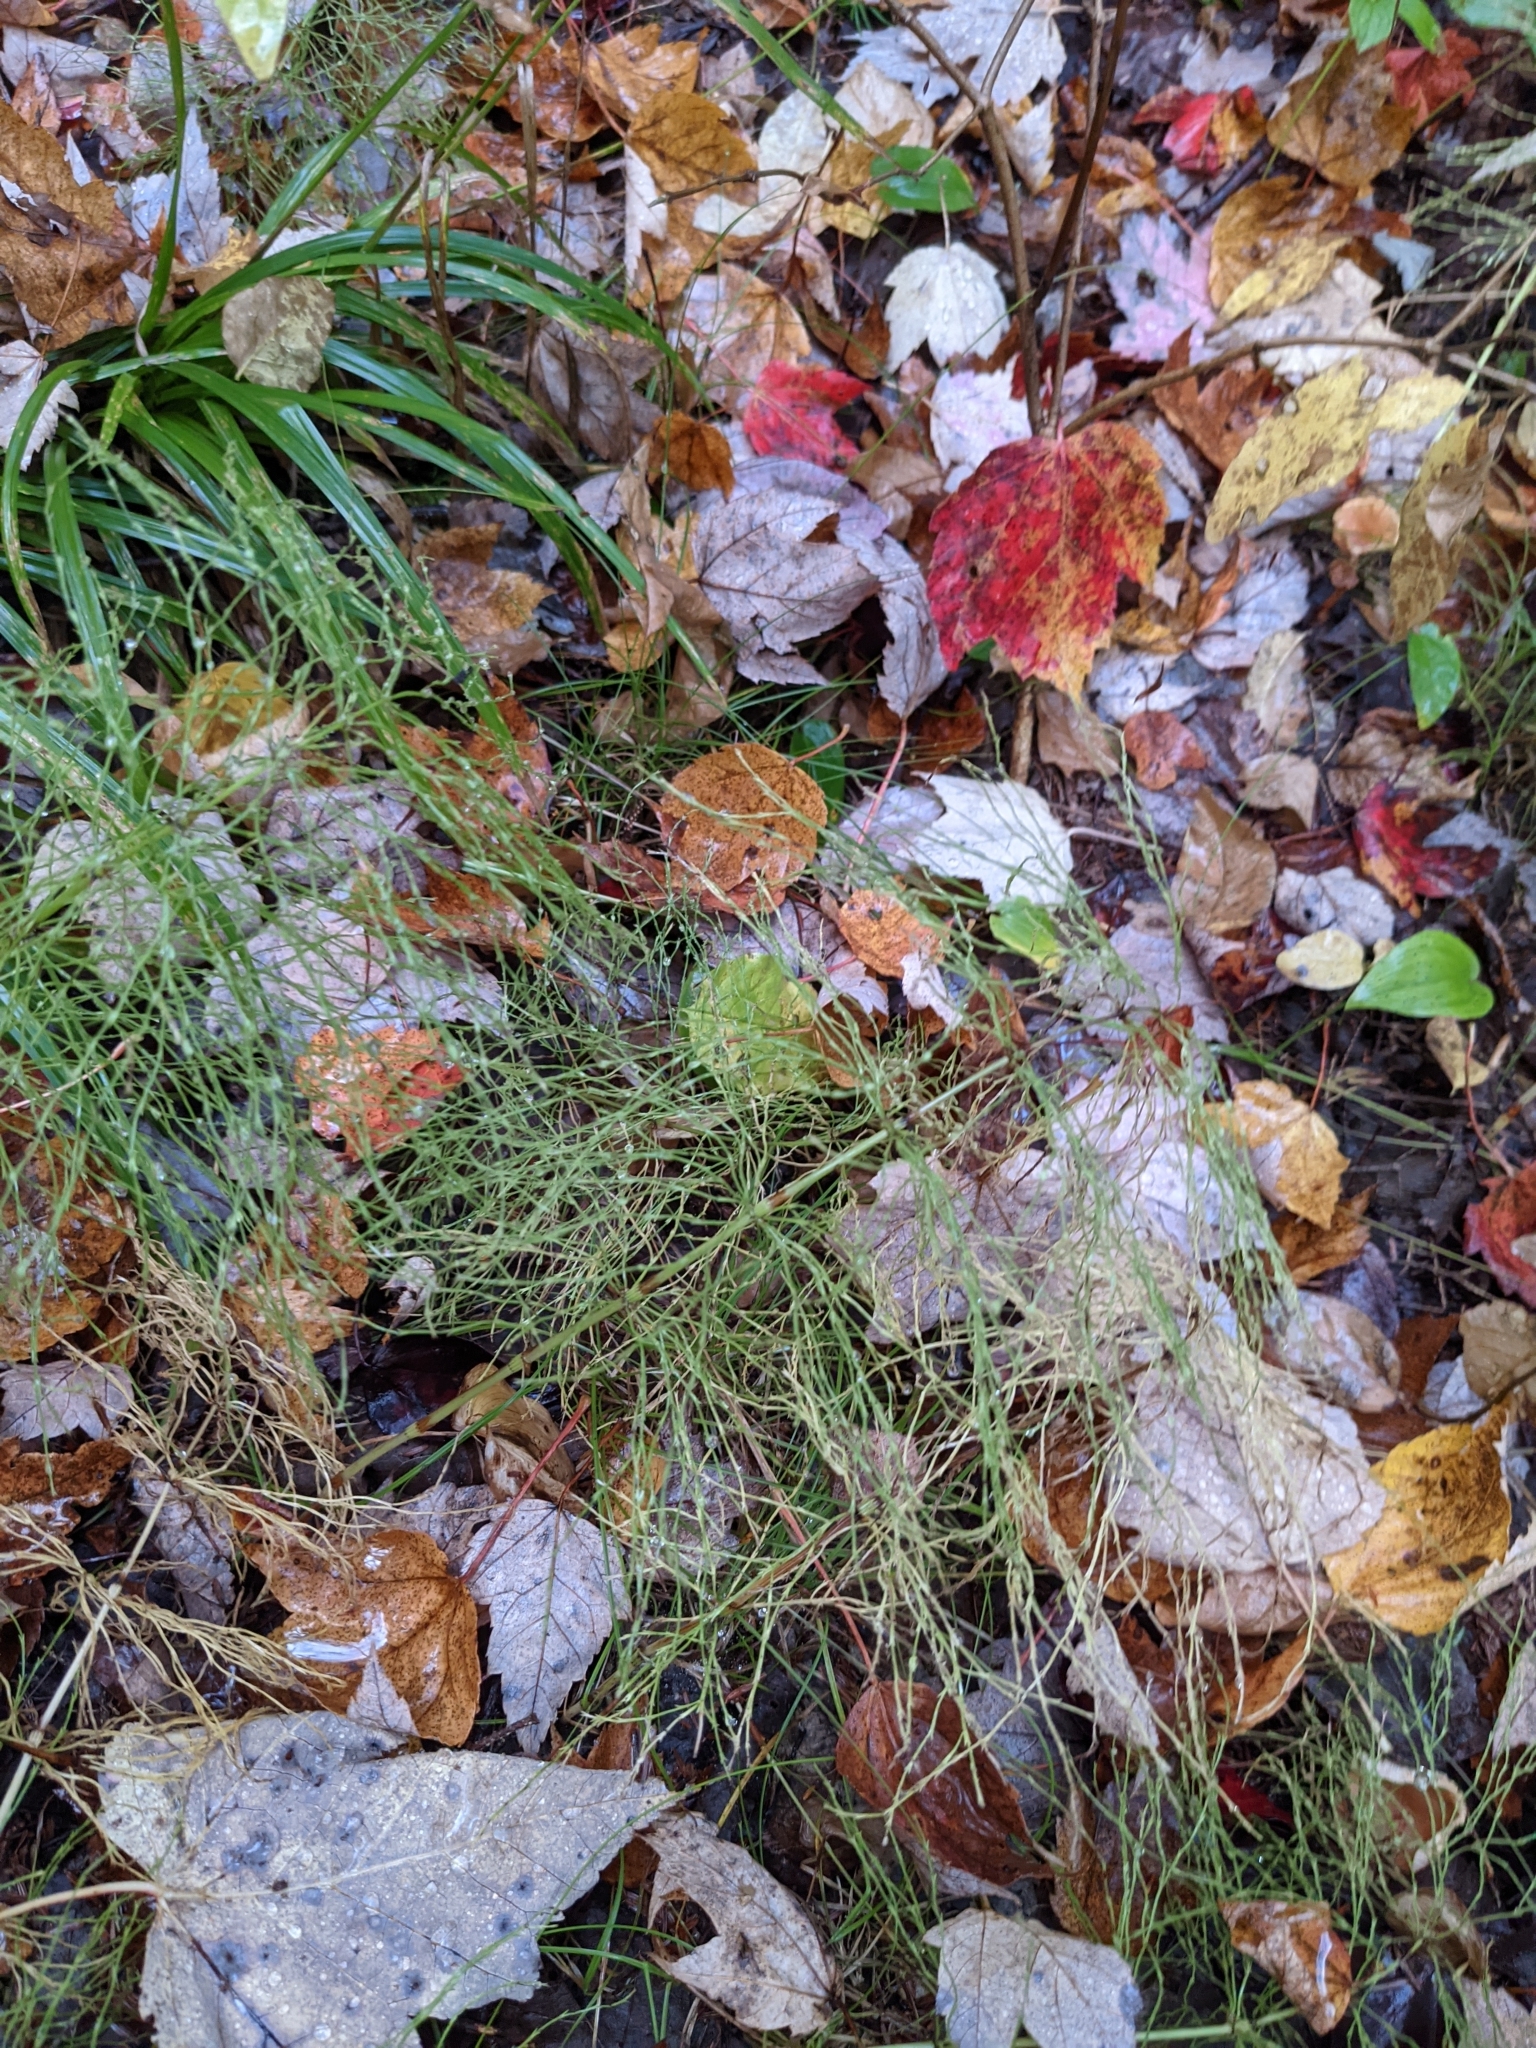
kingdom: Plantae
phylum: Tracheophyta
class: Polypodiopsida
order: Equisetales
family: Equisetaceae
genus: Equisetum
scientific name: Equisetum sylvaticum
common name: Wood horsetail
